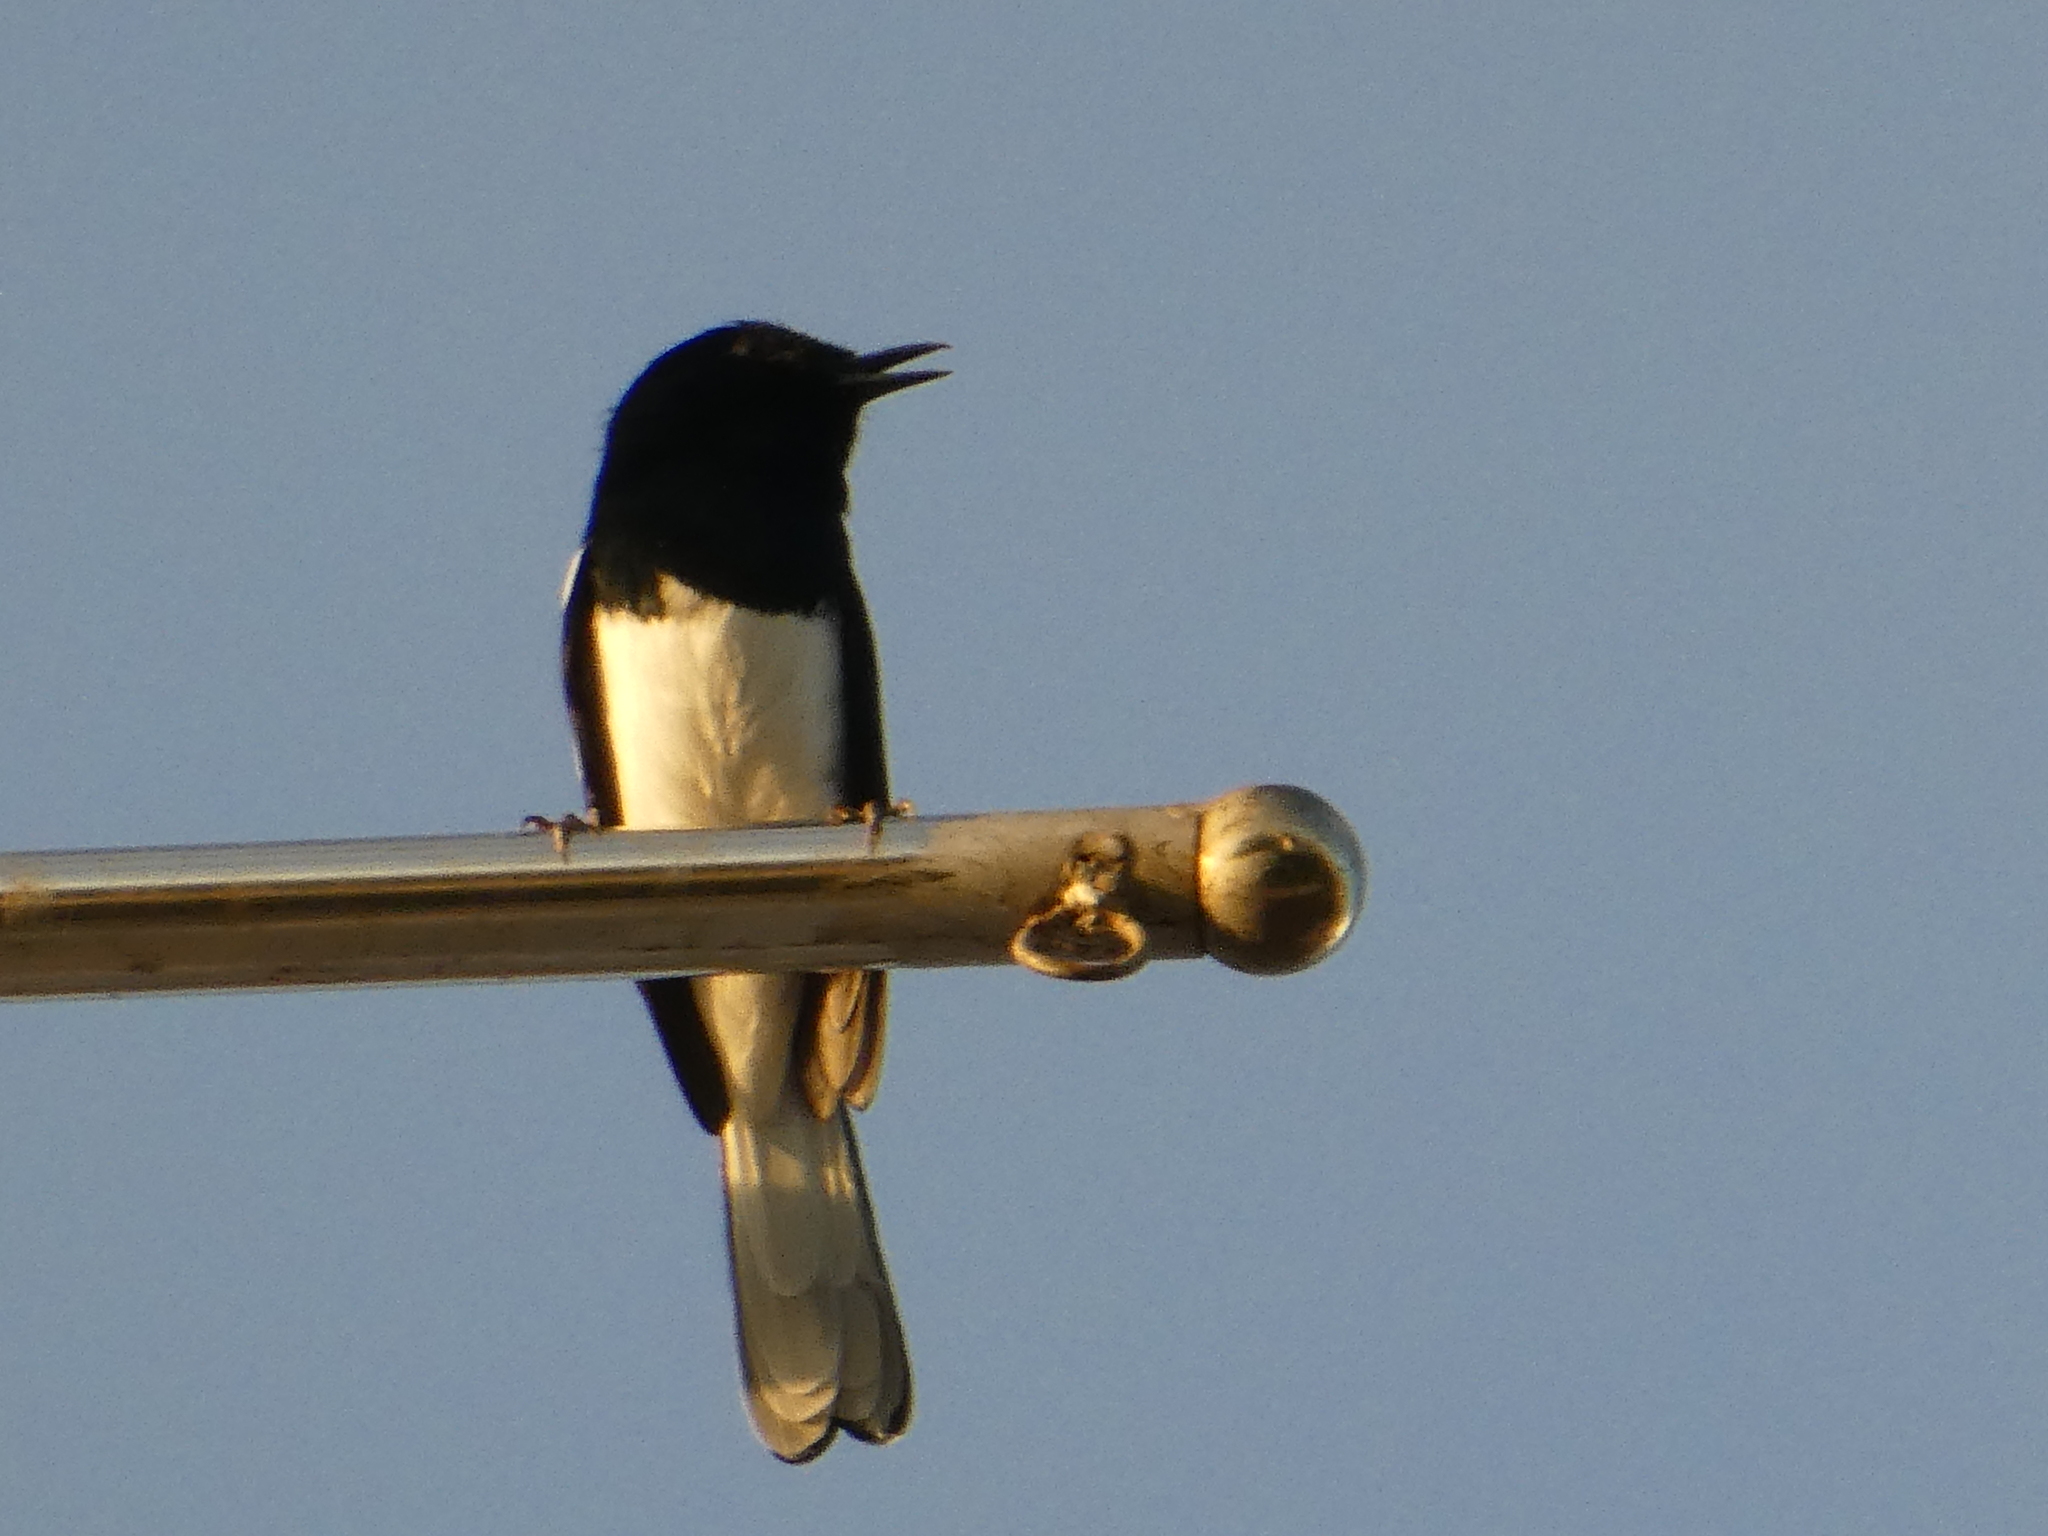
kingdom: Animalia
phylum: Chordata
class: Aves
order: Passeriformes
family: Muscicapidae
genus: Copsychus
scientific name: Copsychus saularis
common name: Oriental magpie-robin
